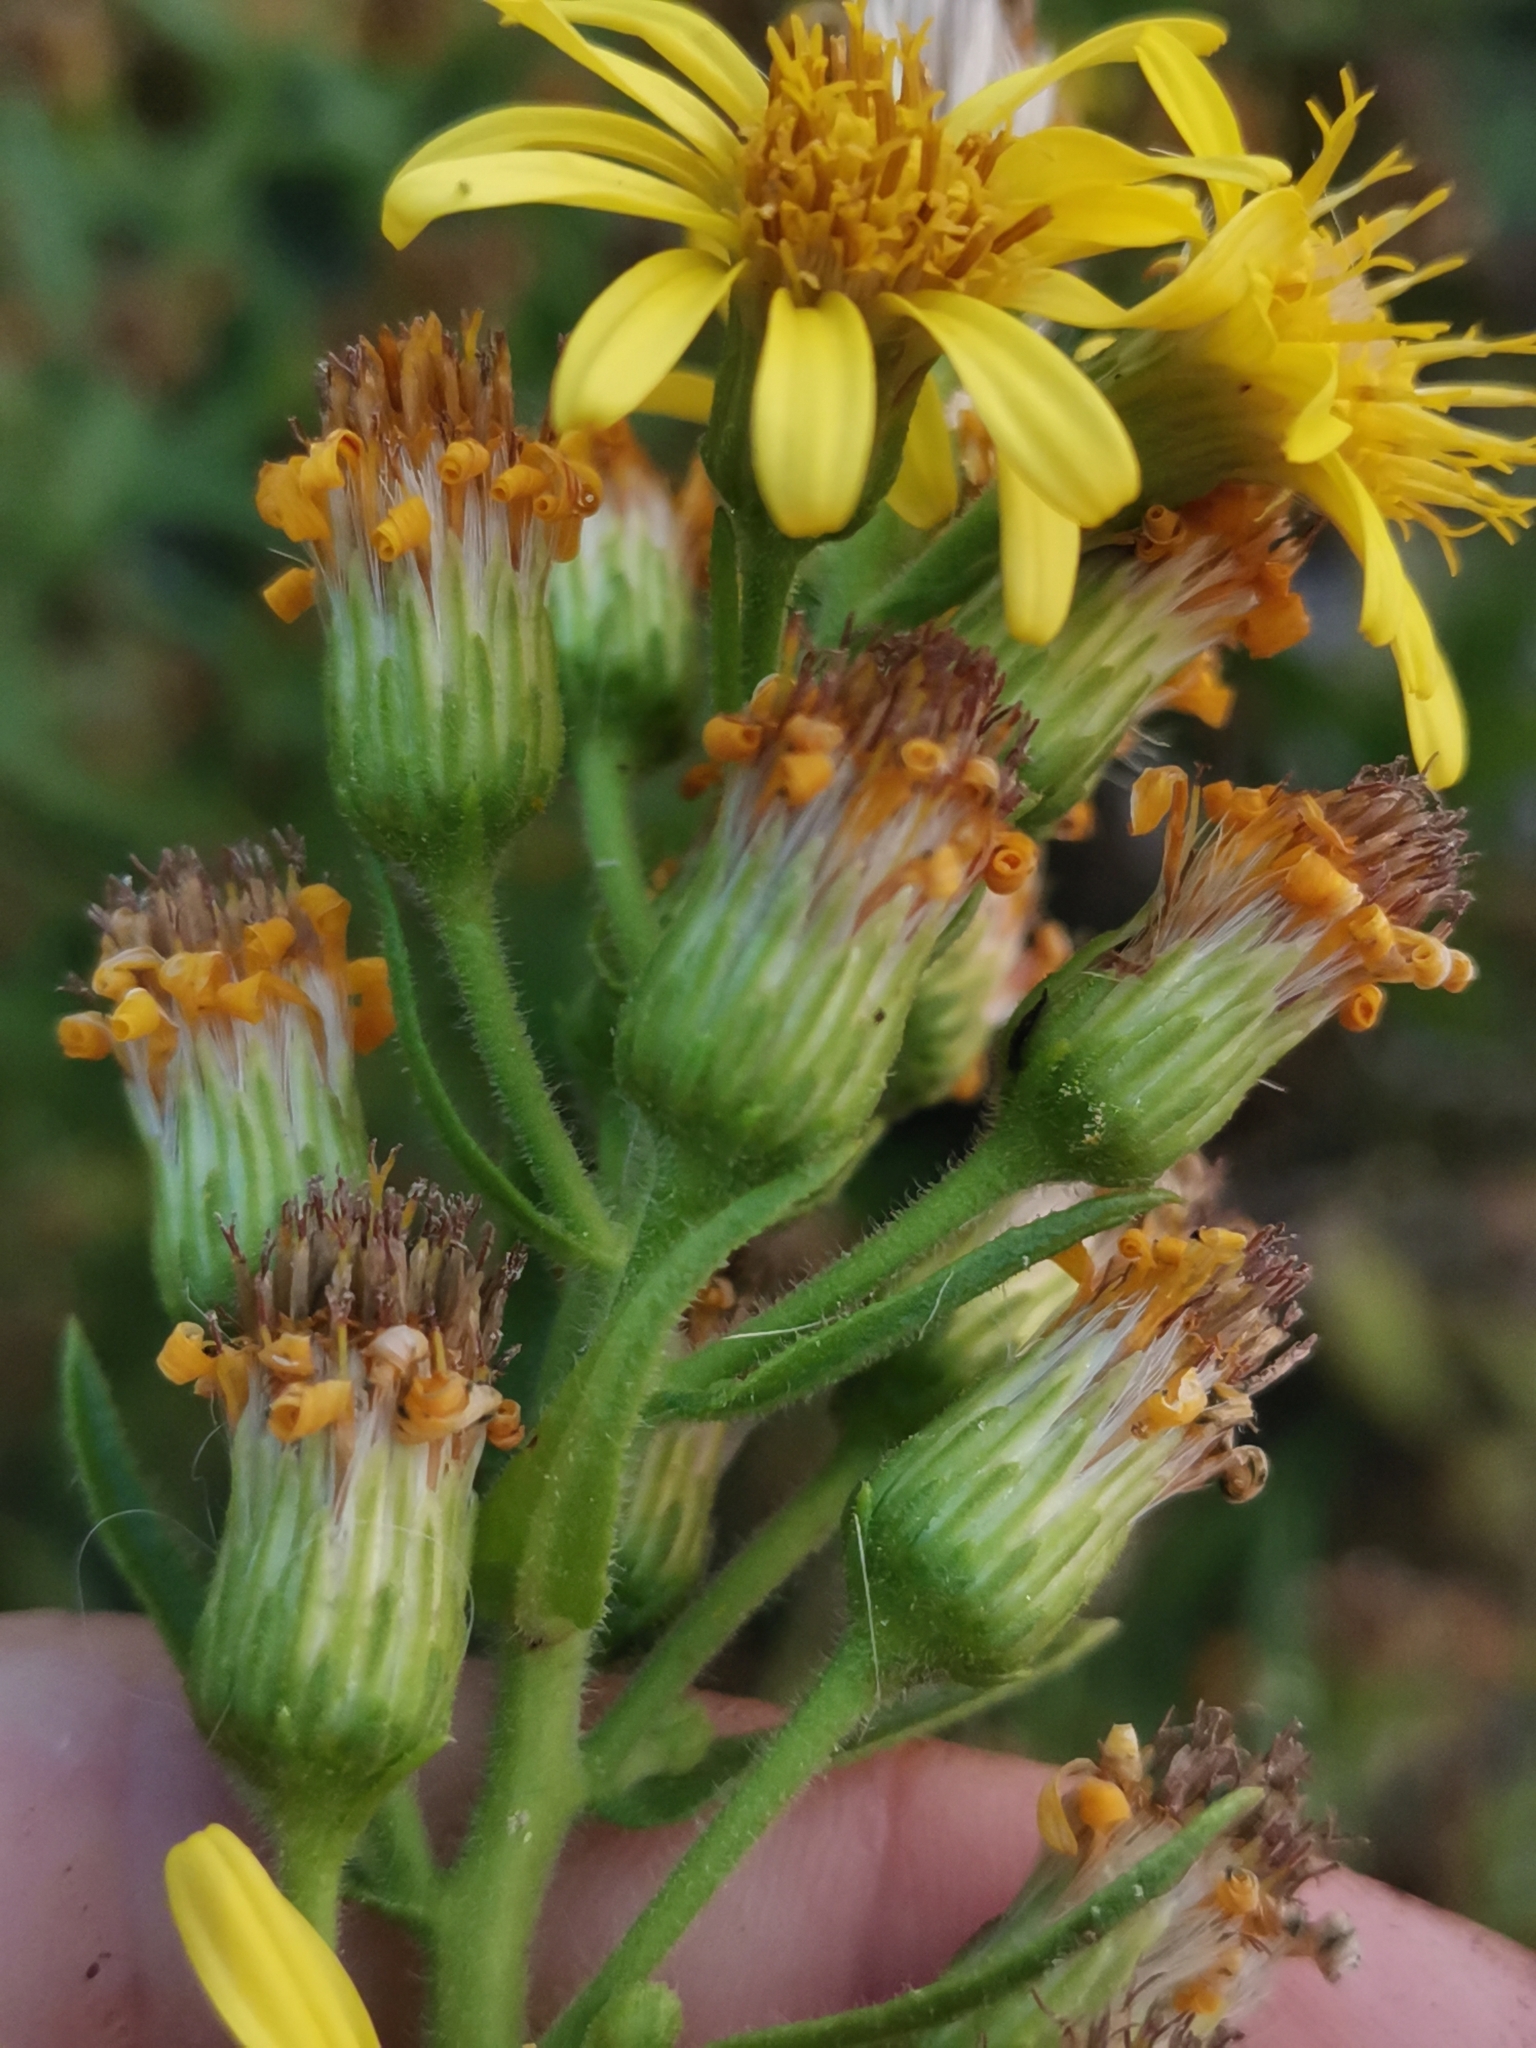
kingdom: Plantae
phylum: Tracheophyta
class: Magnoliopsida
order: Asterales
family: Asteraceae
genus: Dittrichia
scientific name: Dittrichia viscosa
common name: Woody fleabane
